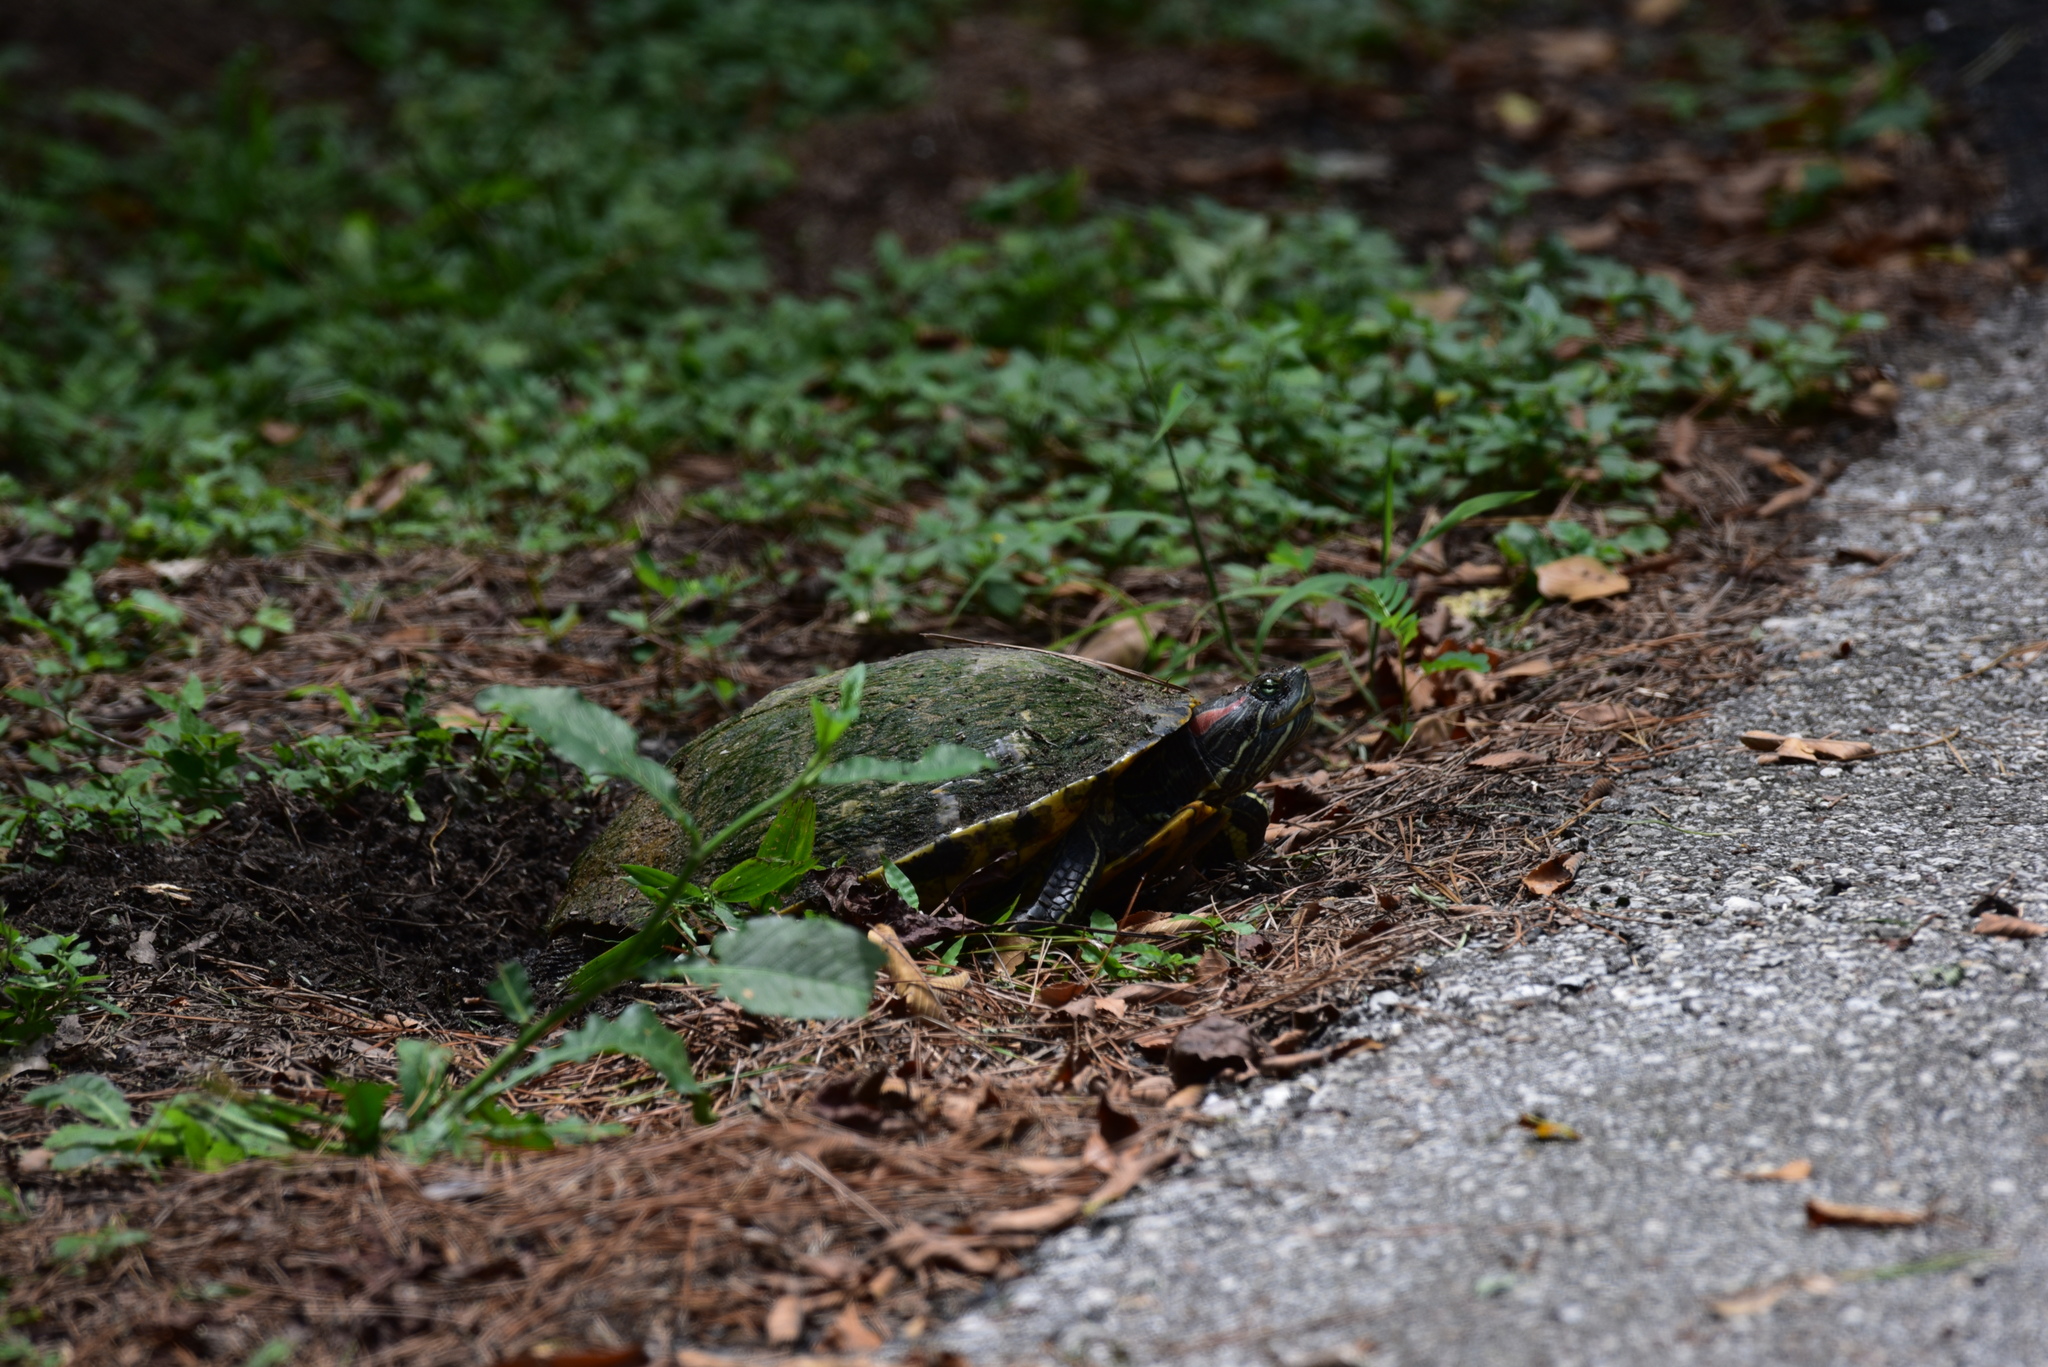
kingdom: Animalia
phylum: Chordata
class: Testudines
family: Emydidae
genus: Trachemys
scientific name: Trachemys scripta
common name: Slider
